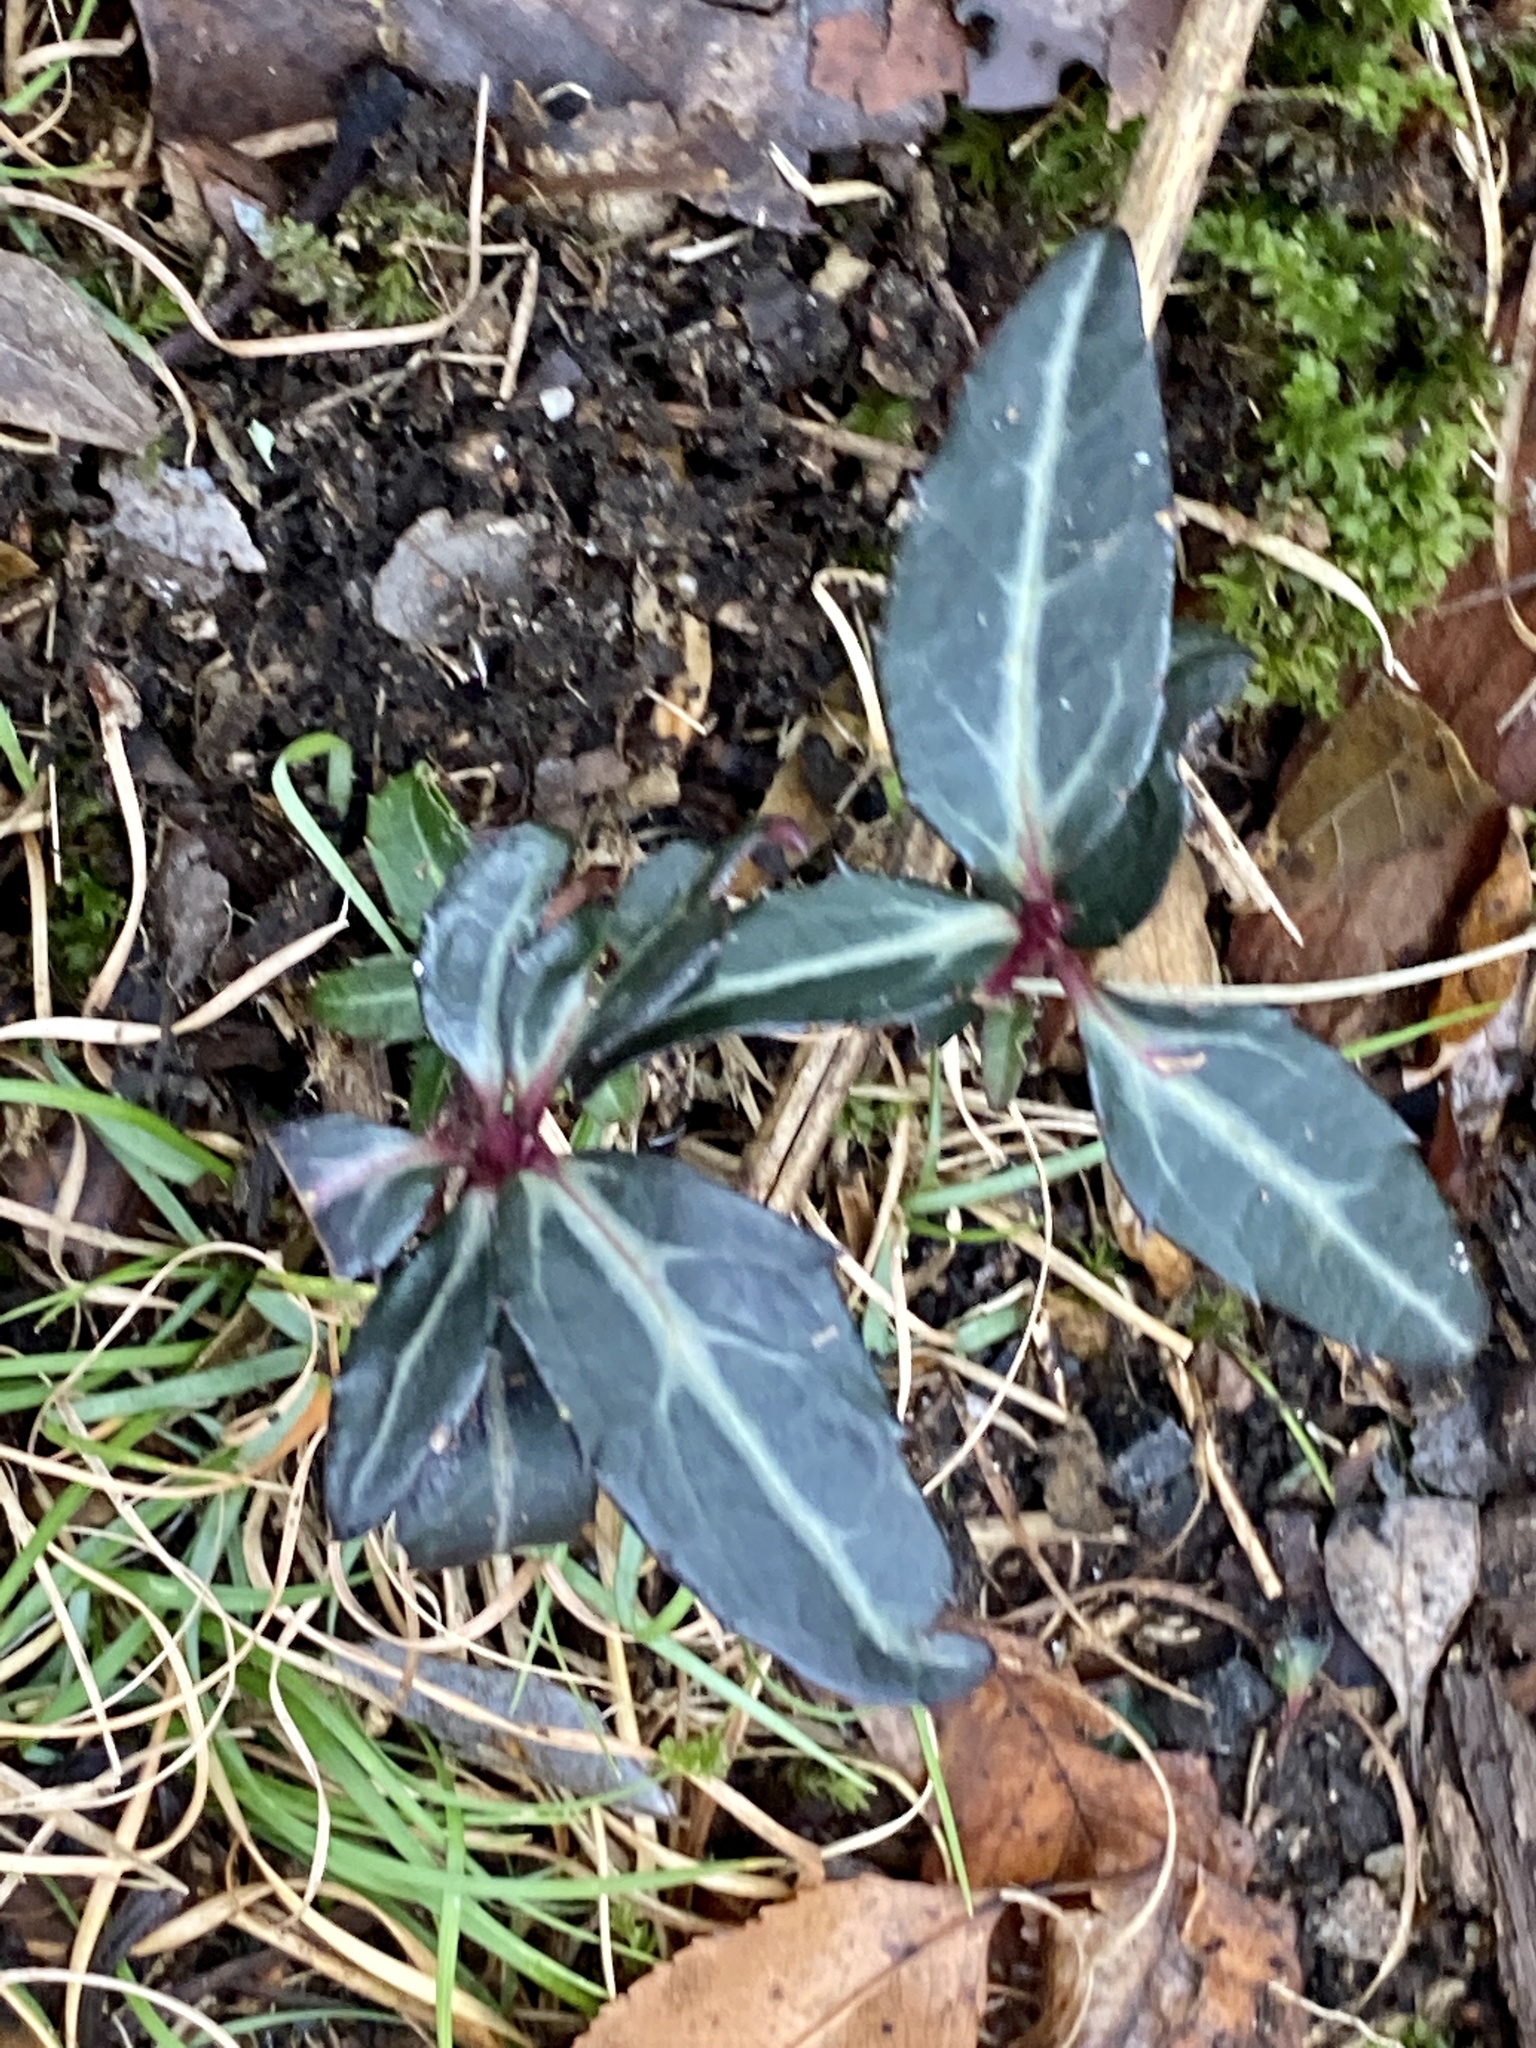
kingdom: Plantae
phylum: Tracheophyta
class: Magnoliopsida
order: Ericales
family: Ericaceae
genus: Chimaphila
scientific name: Chimaphila maculata
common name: Spotted pipsissewa
